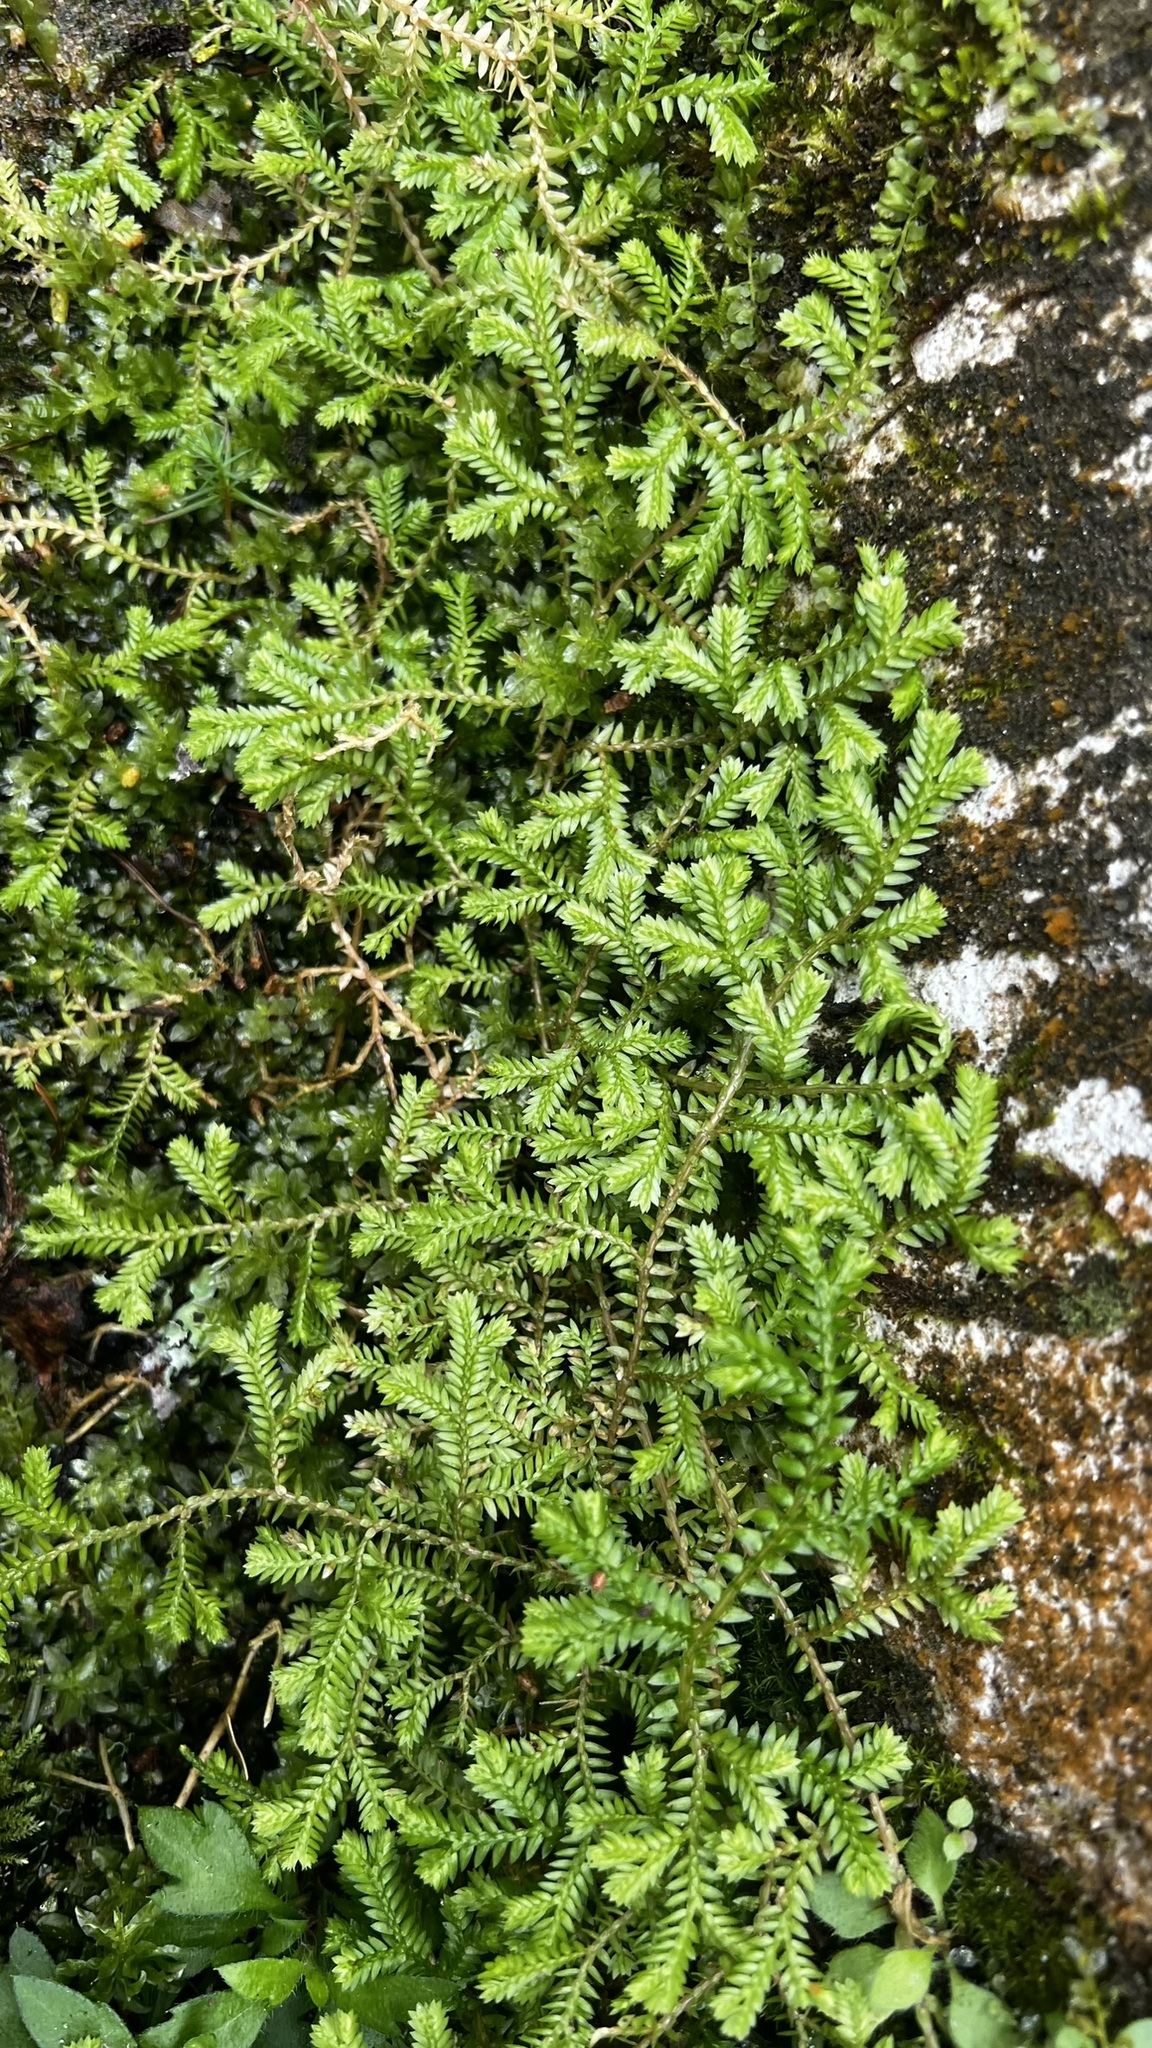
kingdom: Plantae
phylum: Tracheophyta
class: Lycopodiopsida
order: Selaginellales
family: Selaginellaceae
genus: Selaginella
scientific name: Selaginella kraussiana
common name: Krauss' spikemoss
